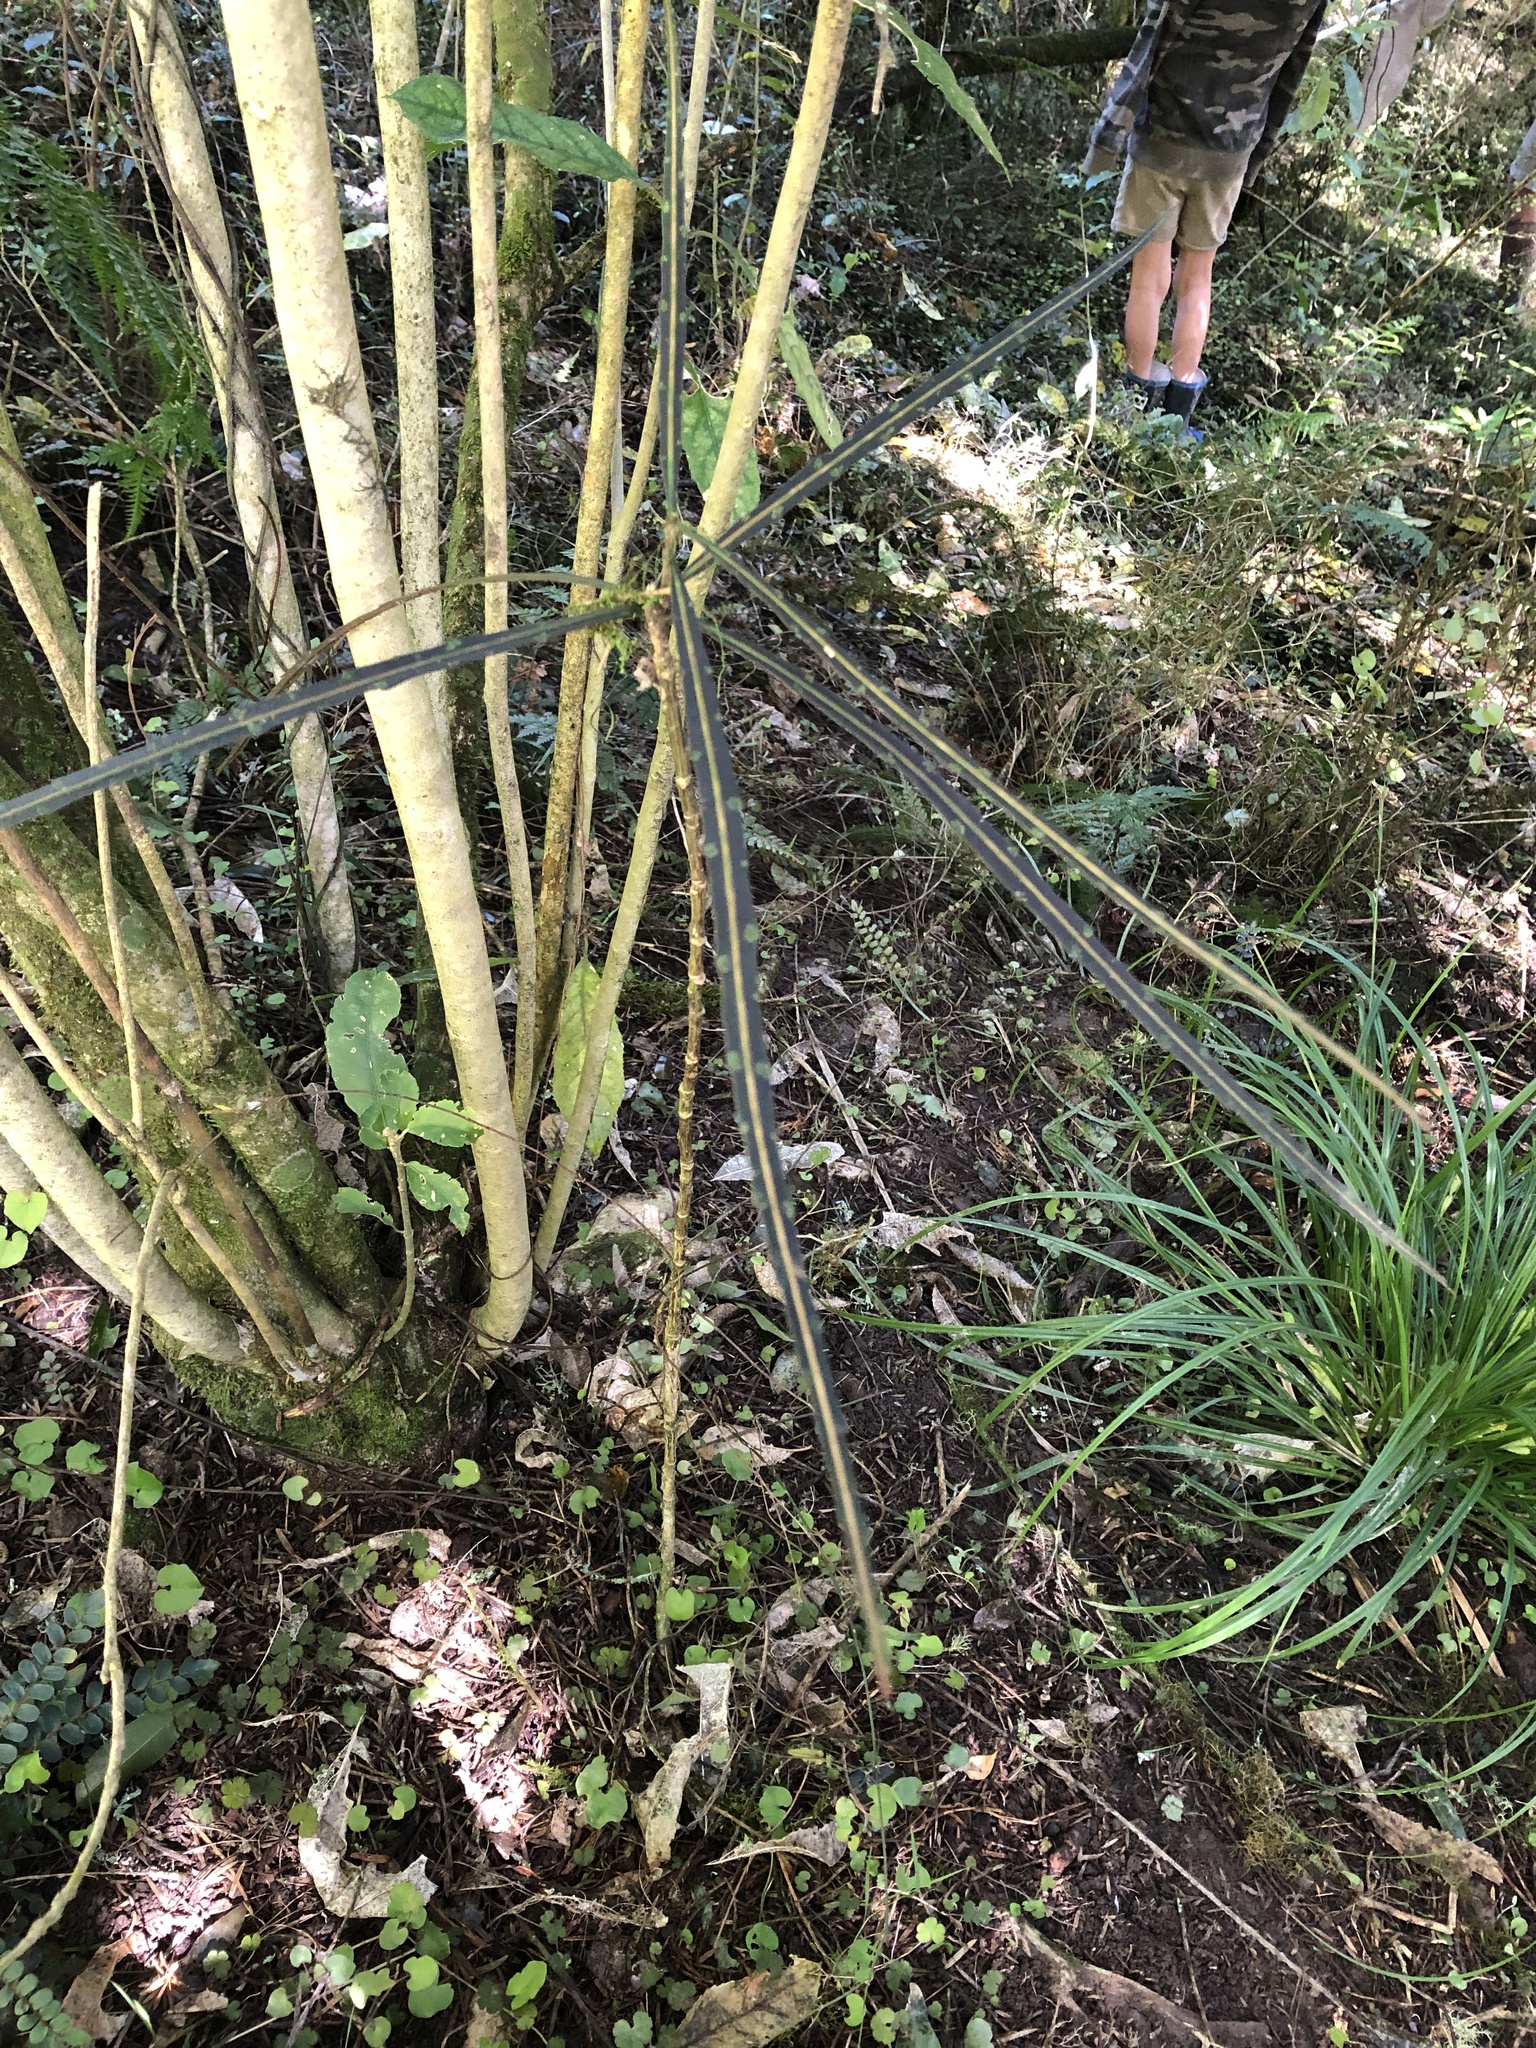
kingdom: Plantae
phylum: Tracheophyta
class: Magnoliopsida
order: Apiales
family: Araliaceae
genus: Pseudopanax
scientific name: Pseudopanax crassifolius
